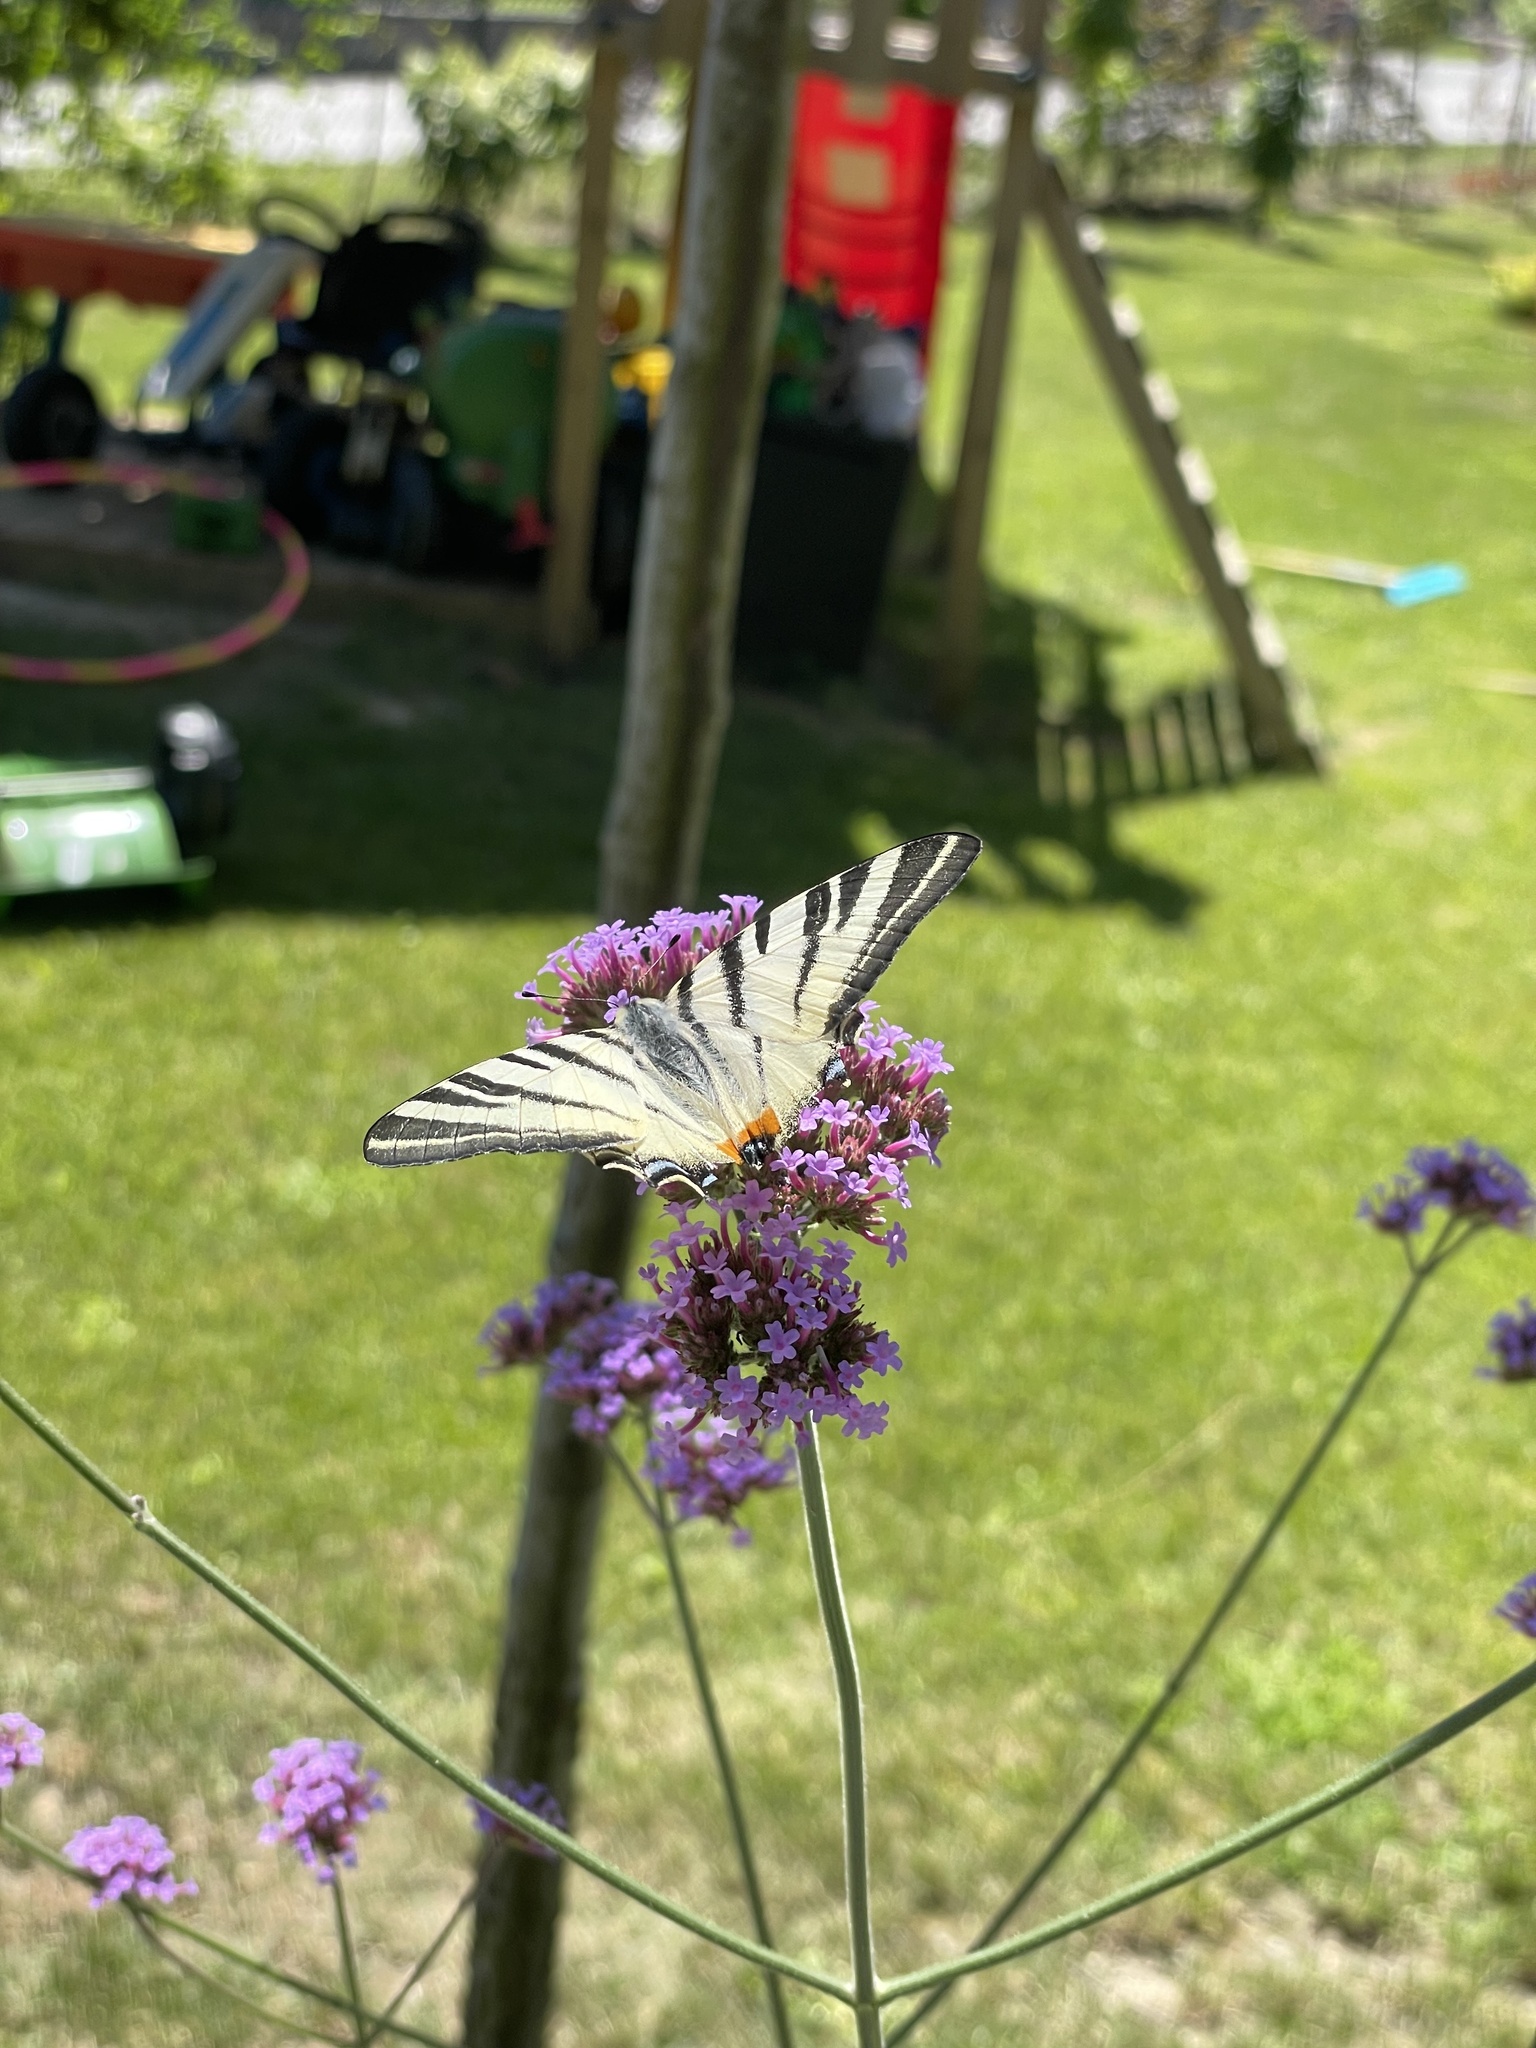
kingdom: Animalia
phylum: Arthropoda
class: Insecta
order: Lepidoptera
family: Papilionidae
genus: Iphiclides
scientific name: Iphiclides podalirius
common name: Scarce swallowtail
